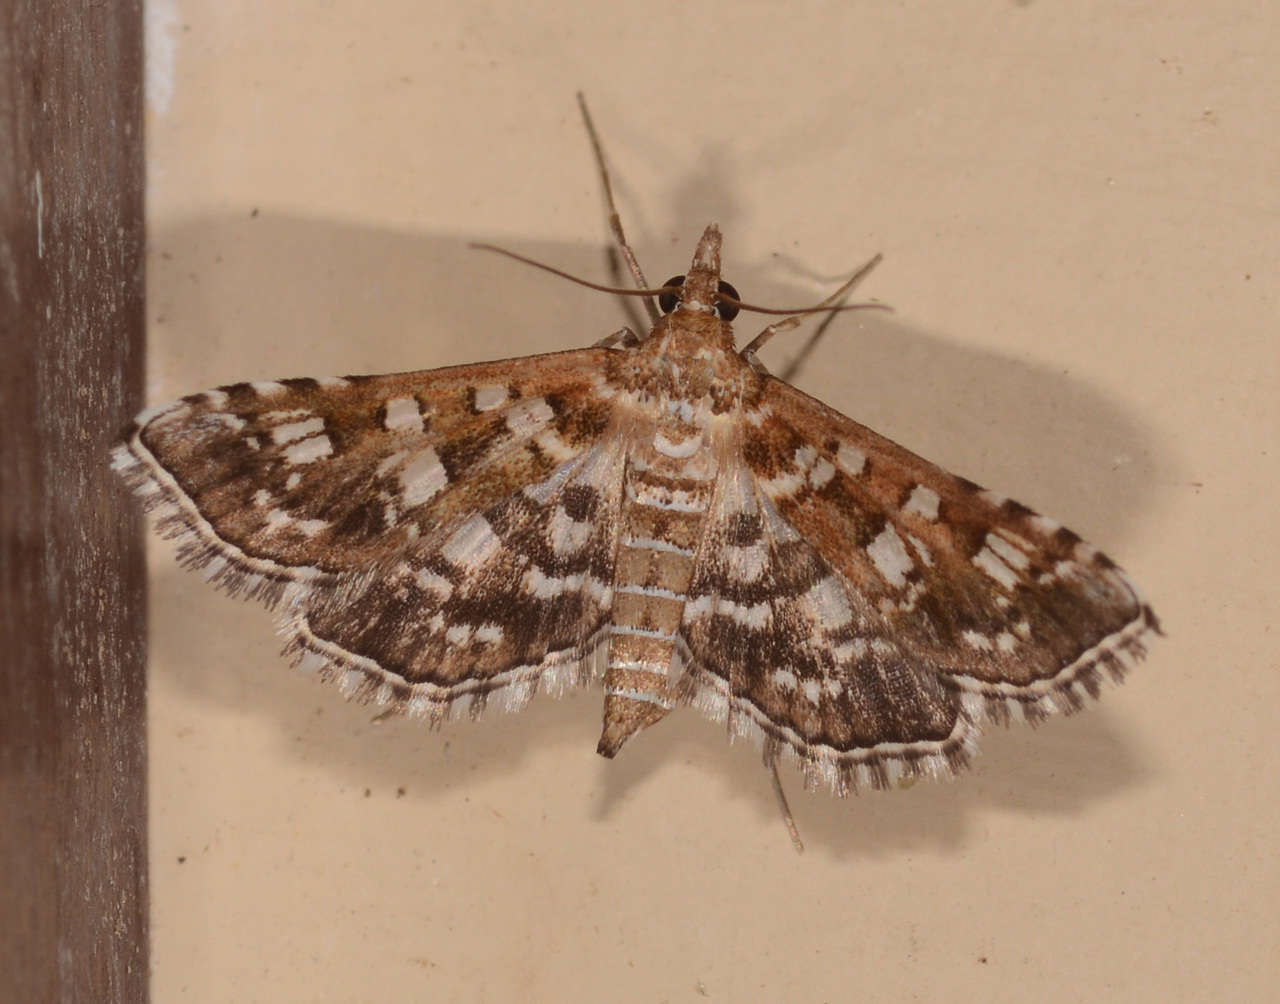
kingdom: Animalia
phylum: Arthropoda
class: Insecta
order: Lepidoptera
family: Crambidae
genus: Sameodes
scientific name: Sameodes iolealis
